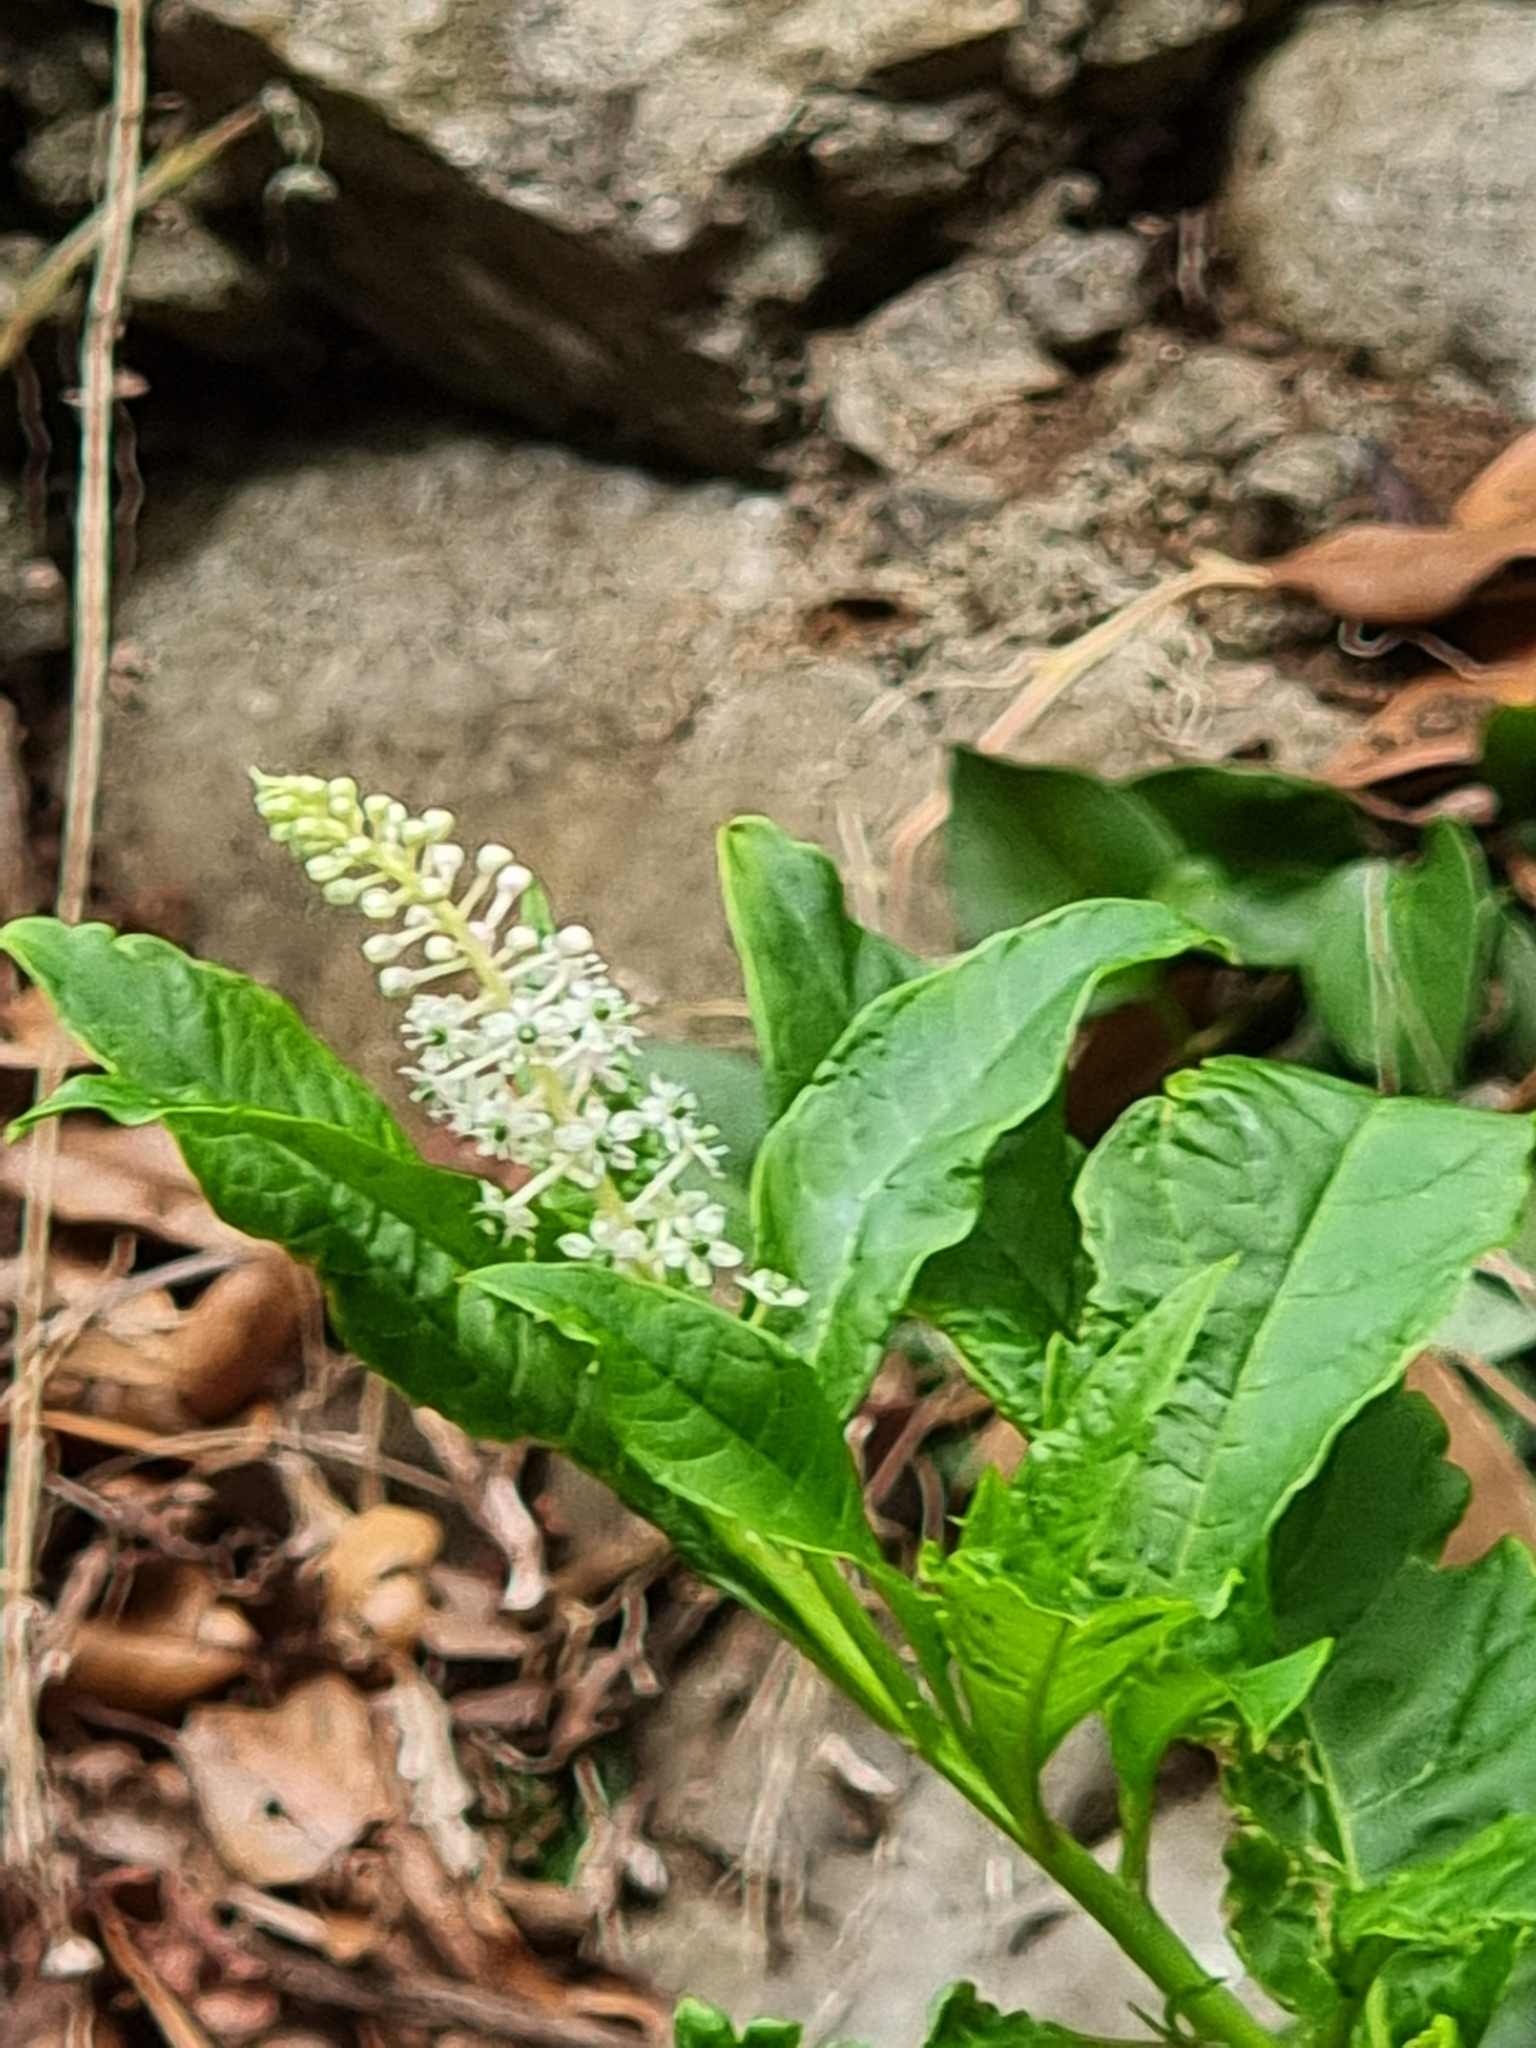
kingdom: Plantae
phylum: Tracheophyta
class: Magnoliopsida
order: Caryophyllales
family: Phytolaccaceae
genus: Phytolacca
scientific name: Phytolacca americana
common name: American pokeweed
